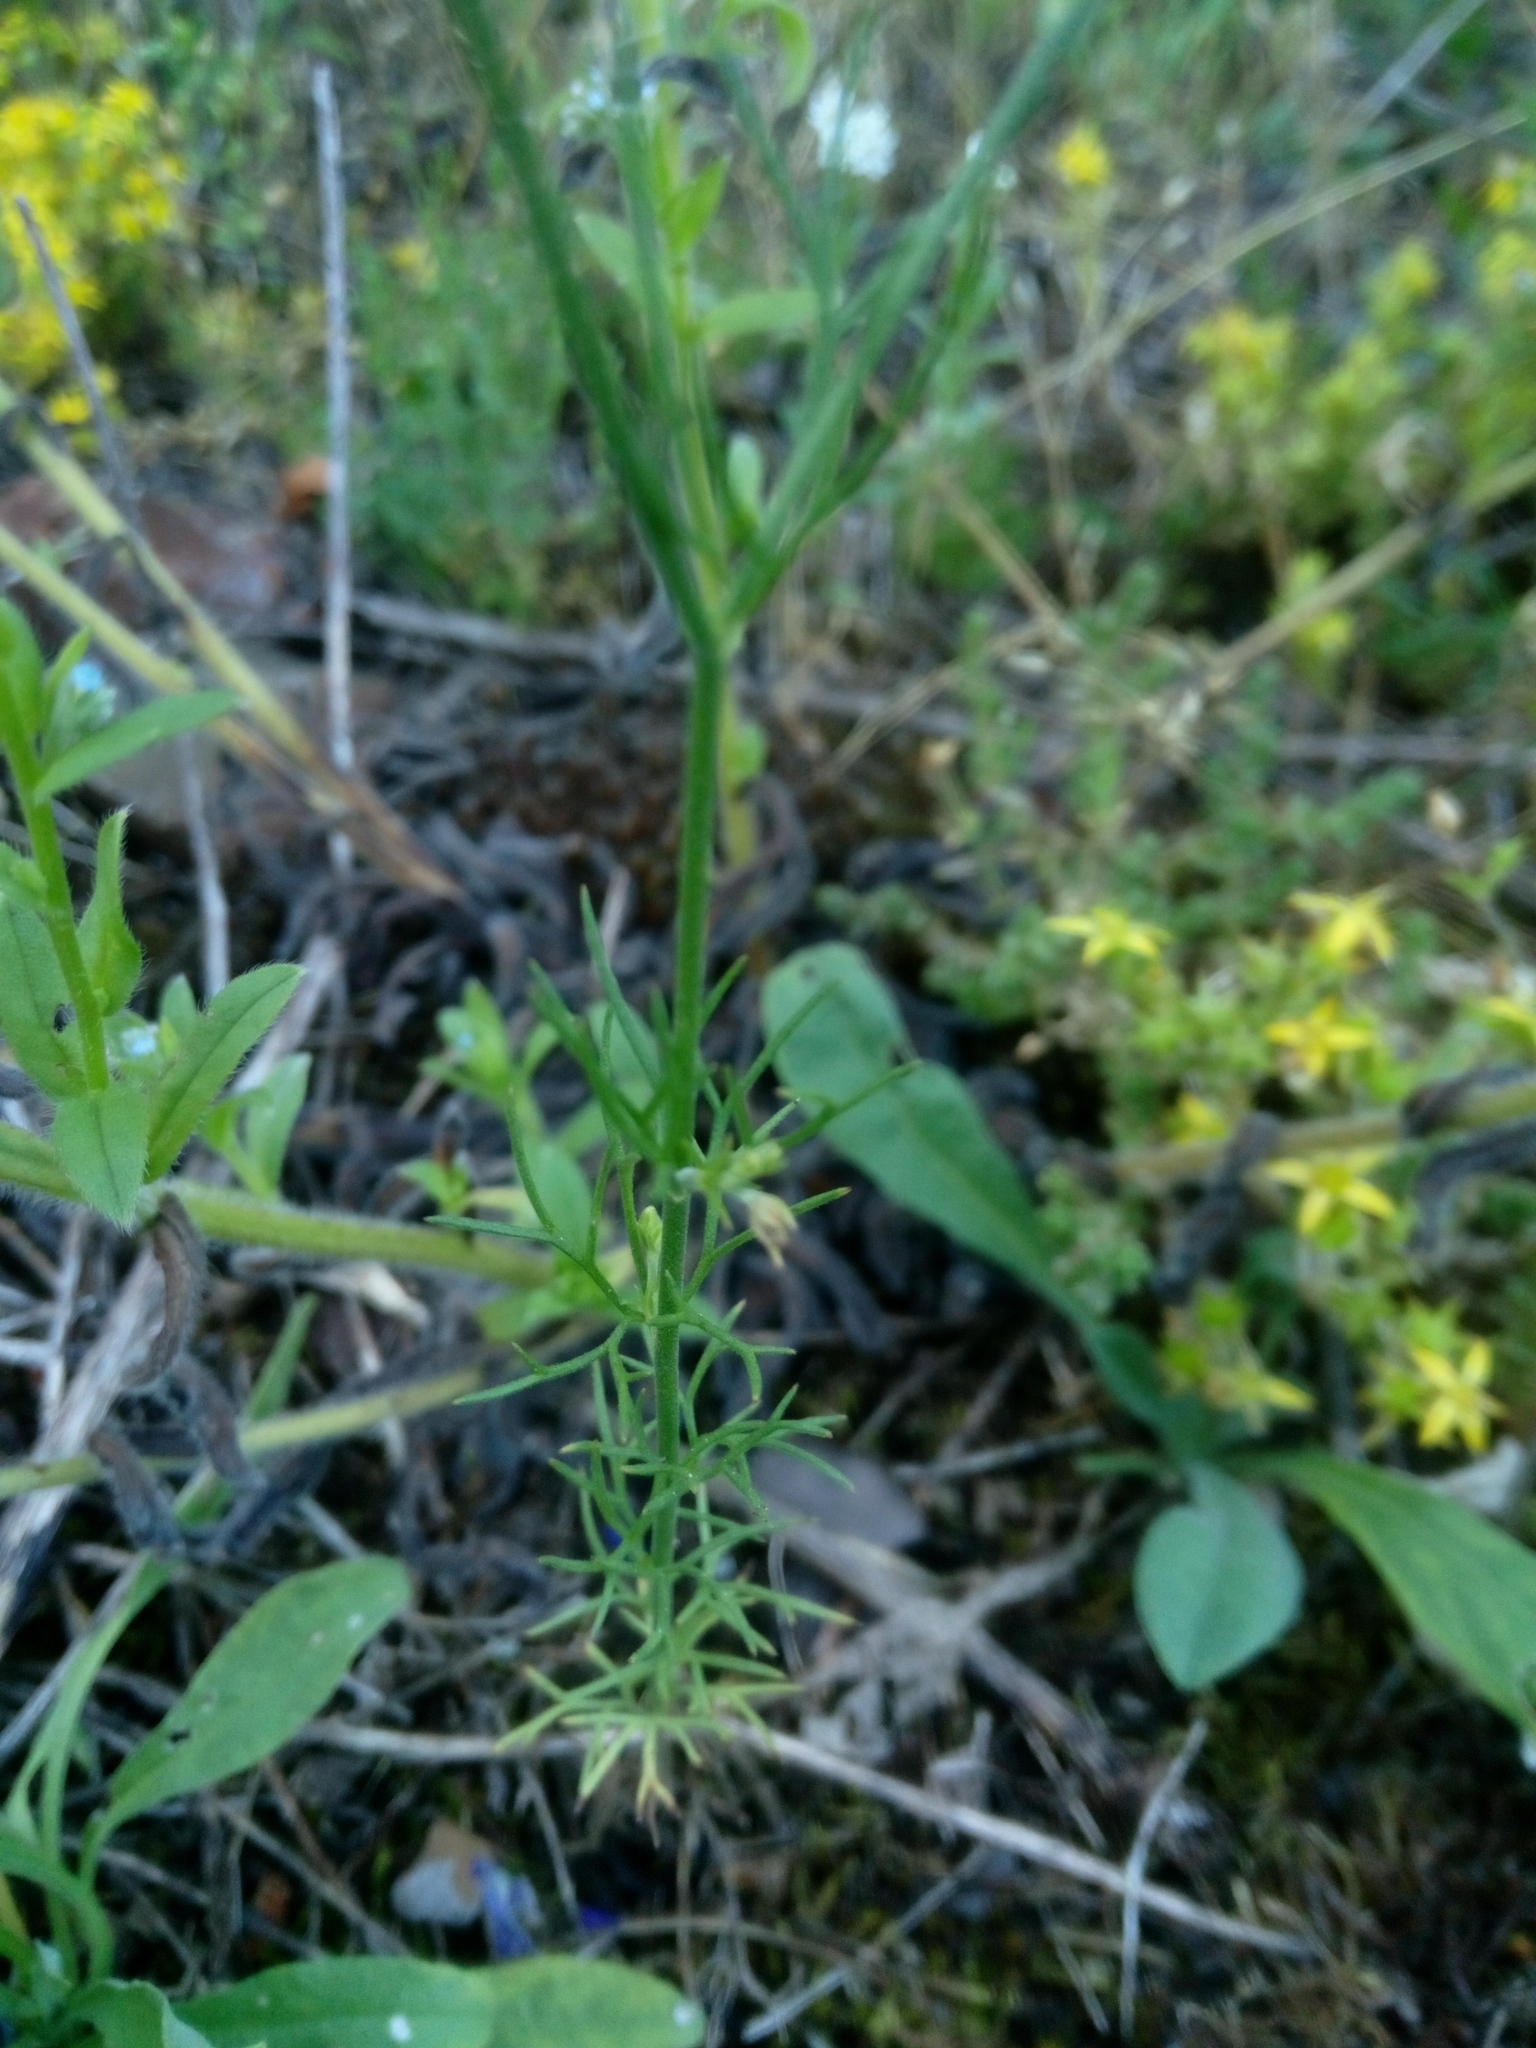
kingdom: Plantae
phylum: Tracheophyta
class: Magnoliopsida
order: Ranunculales
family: Ranunculaceae
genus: Delphinium
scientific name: Delphinium consolida
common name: Branching larkspur
